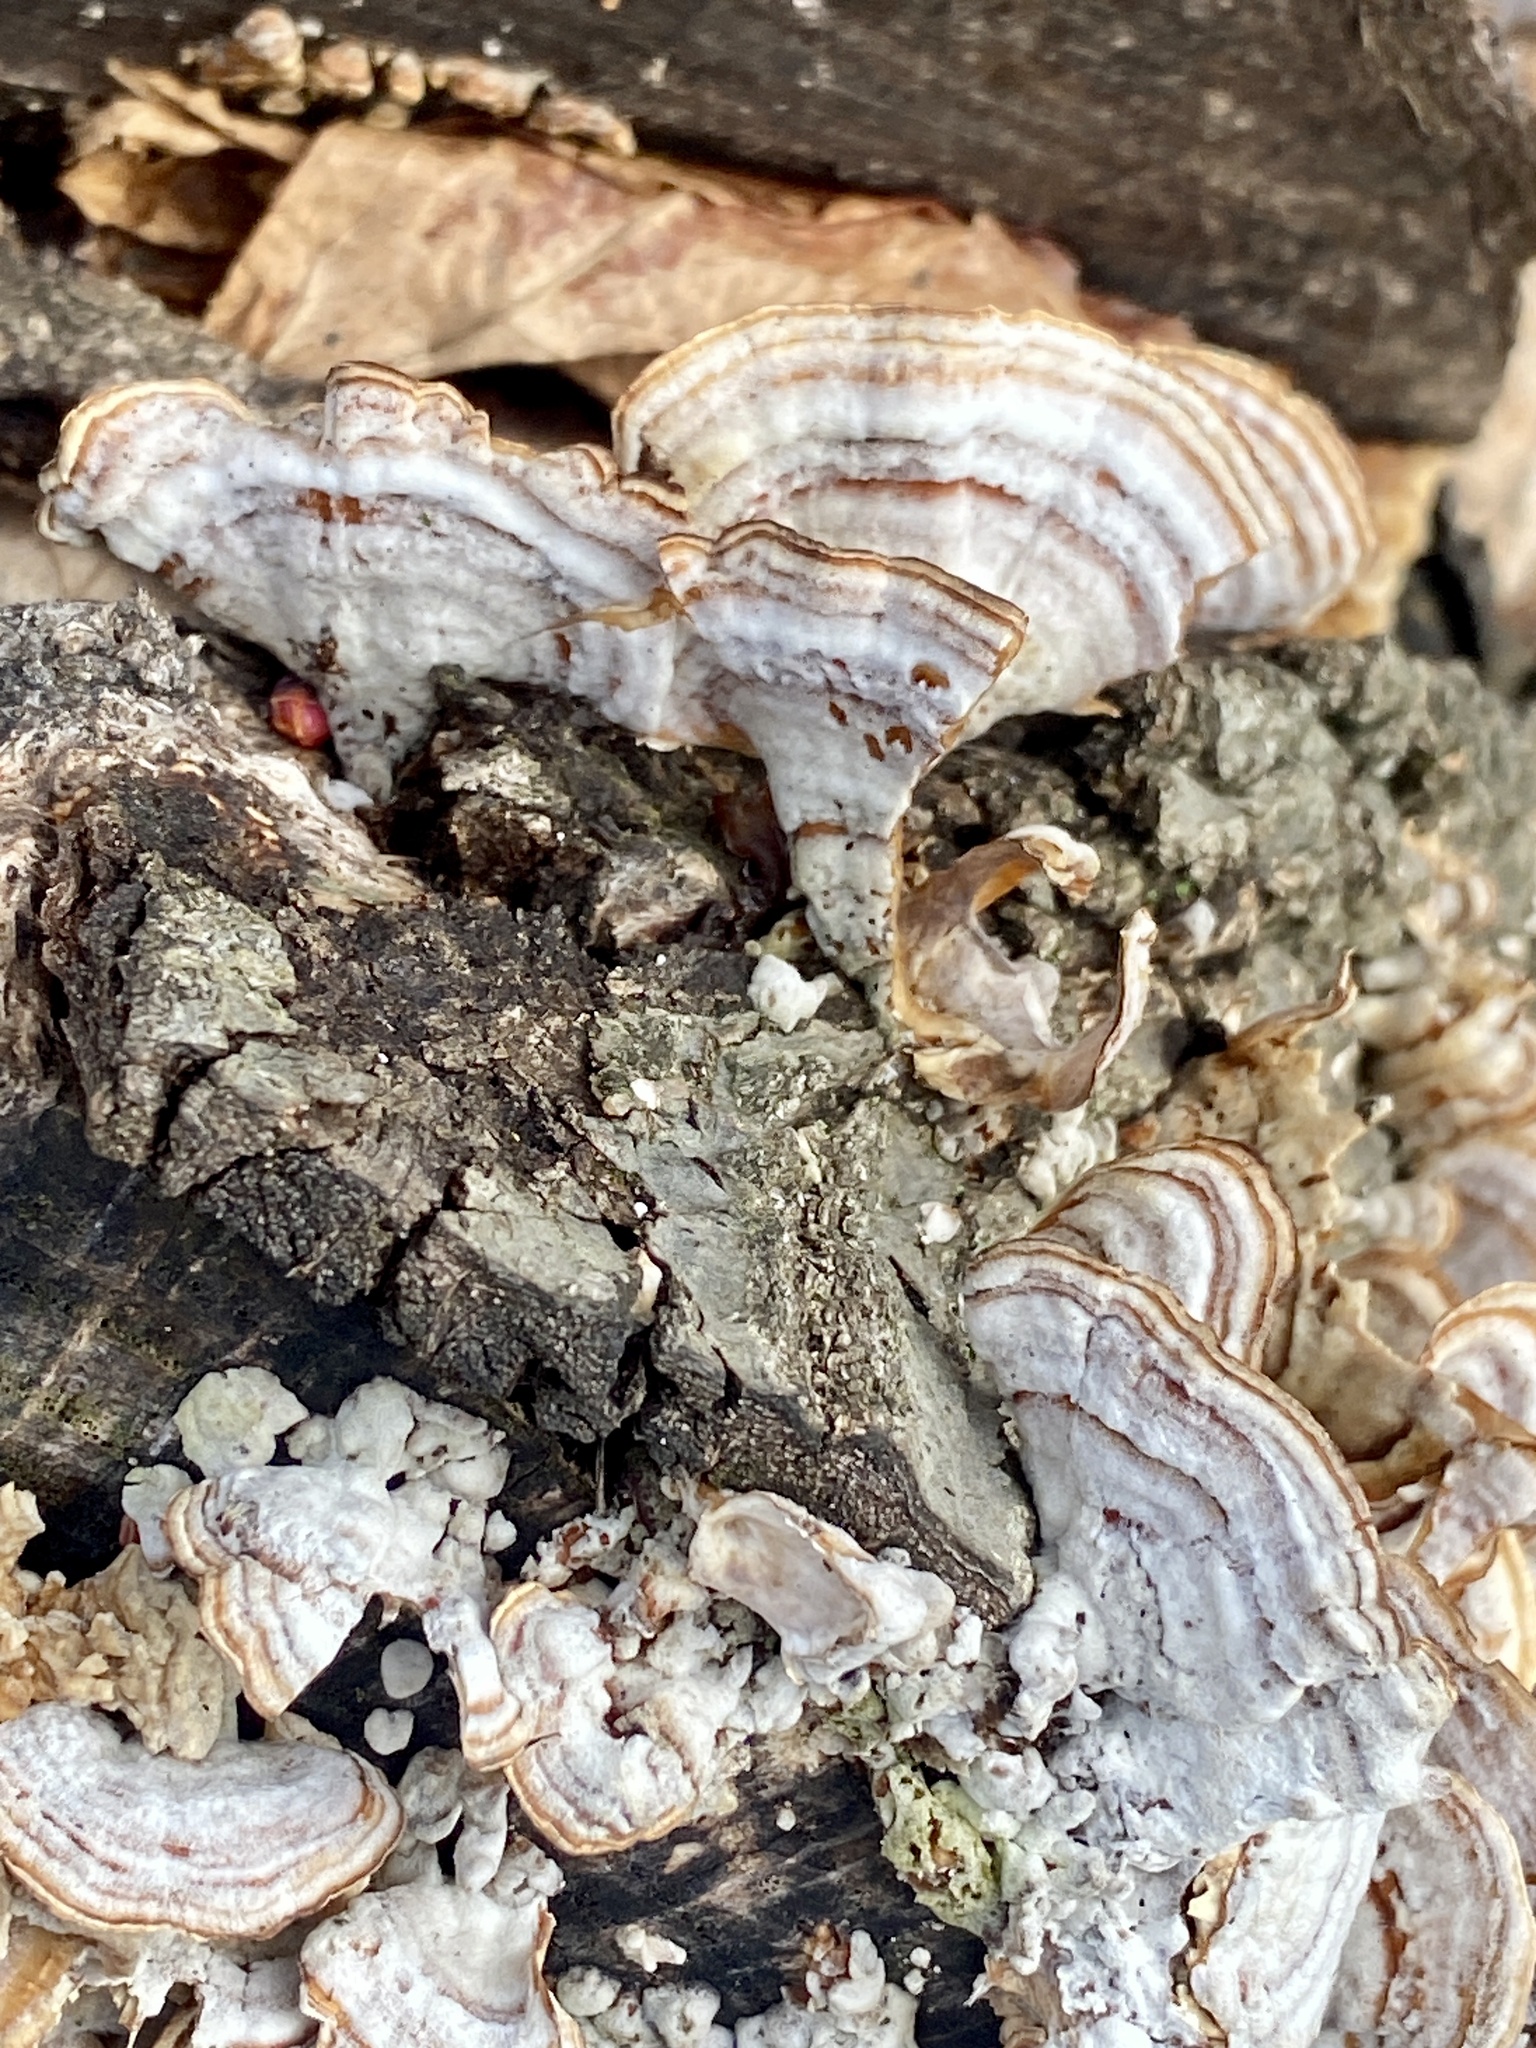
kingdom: Fungi
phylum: Basidiomycota
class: Agaricomycetes
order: Russulales
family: Stereaceae
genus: Stereum
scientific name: Stereum lobatum
